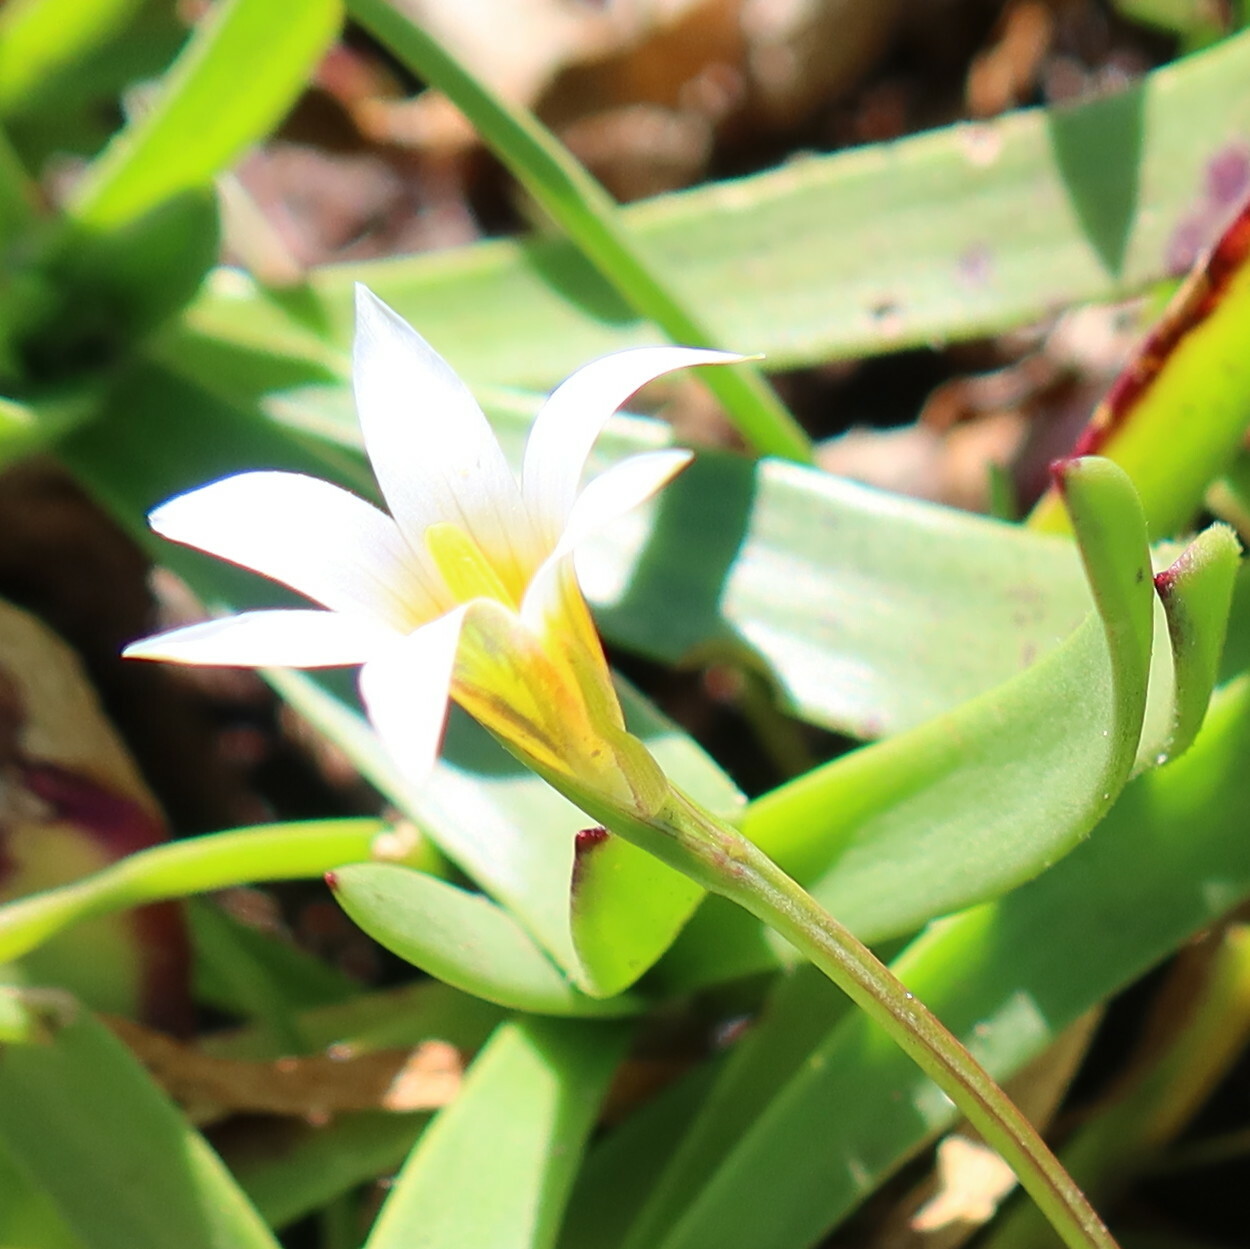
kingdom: Plantae
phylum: Tracheophyta
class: Liliopsida
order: Asparagales
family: Iridaceae
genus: Romulea
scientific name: Romulea tabularis
